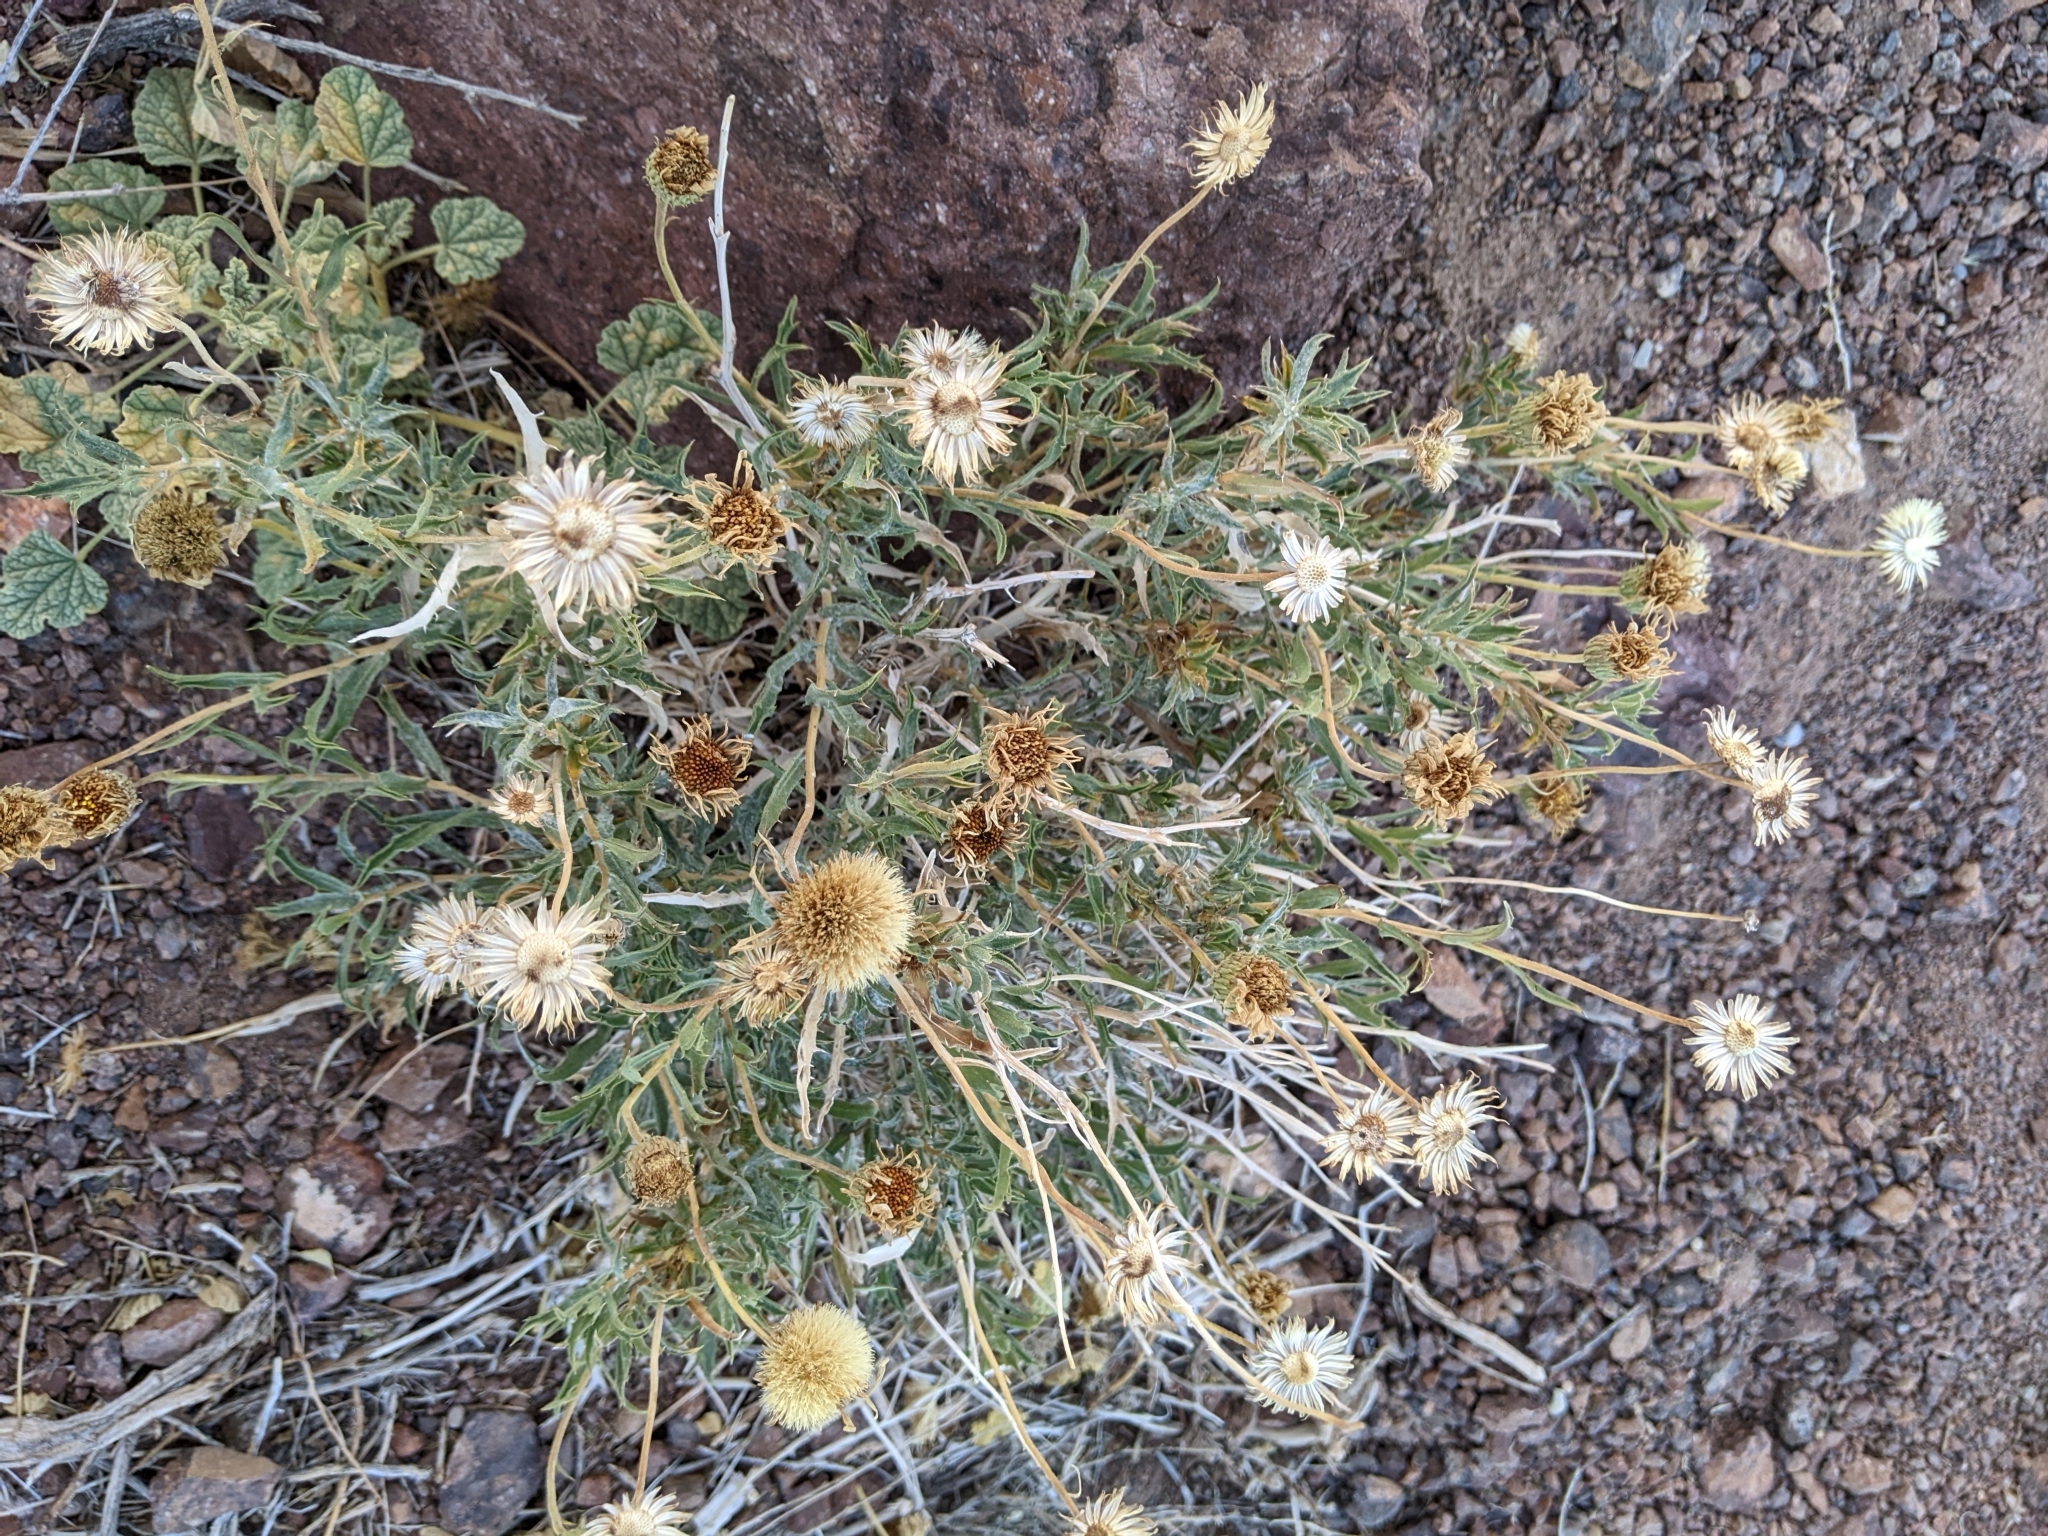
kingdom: Plantae
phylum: Tracheophyta
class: Magnoliopsida
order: Asterales
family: Asteraceae
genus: Xylorhiza
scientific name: Xylorhiza tortifolia
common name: Hurt-leaf woody-aster
